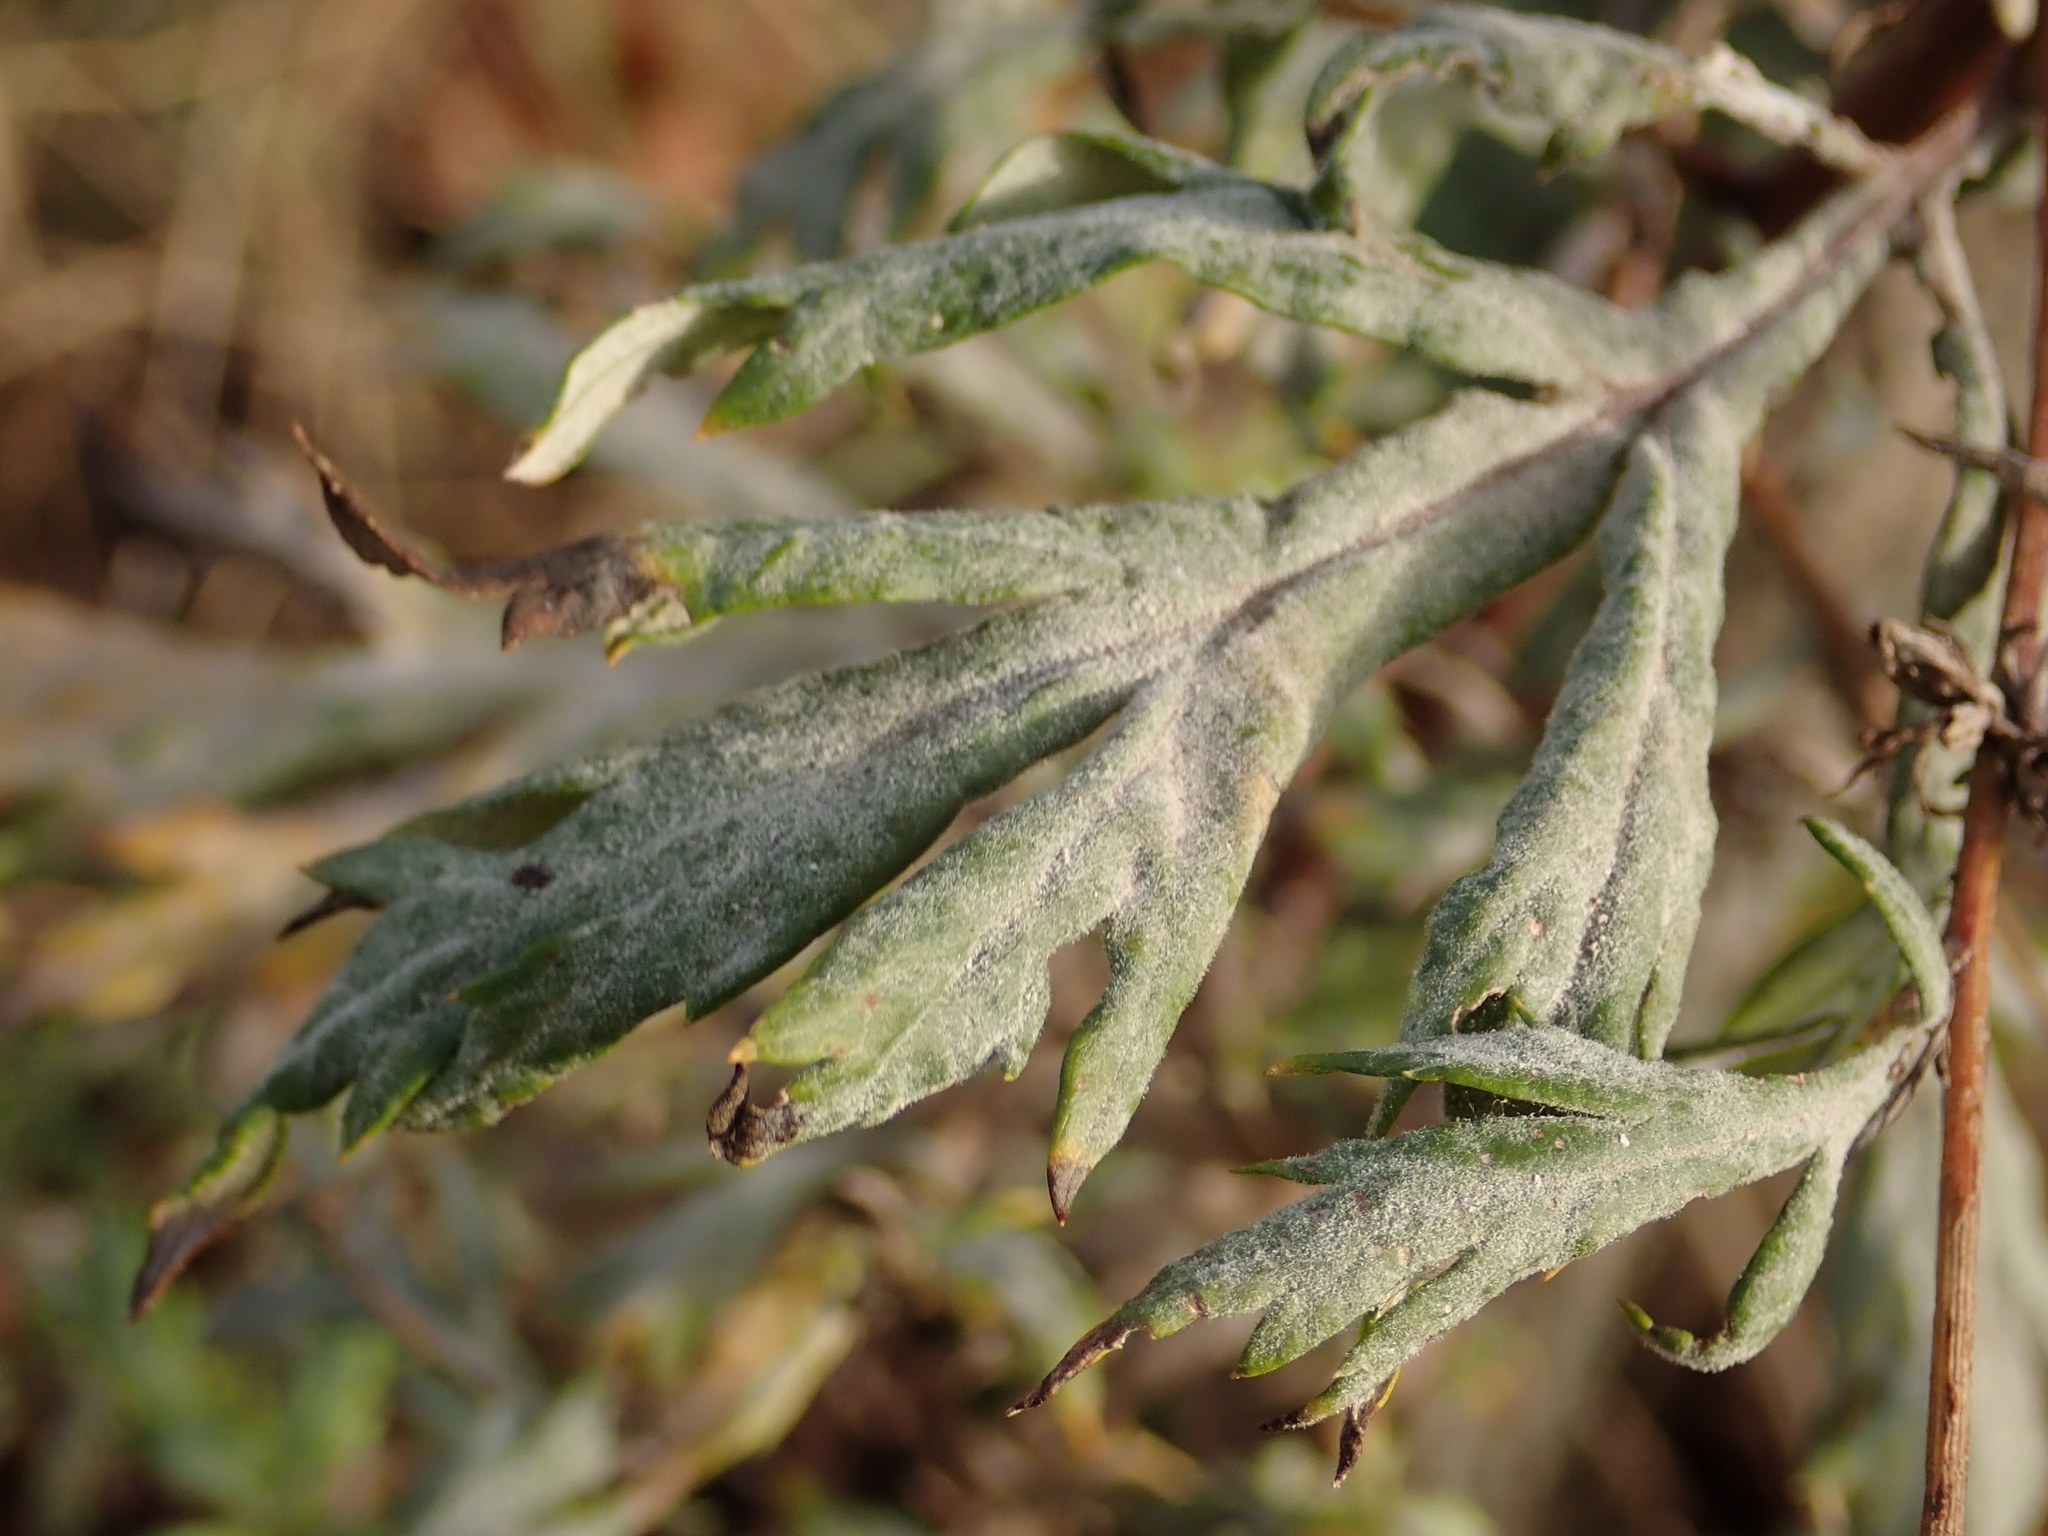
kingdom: Fungi
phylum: Ascomycota
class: Leotiomycetes
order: Helotiales
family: Erysiphaceae
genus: Golovinomyces
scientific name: Golovinomyces artemisiae
